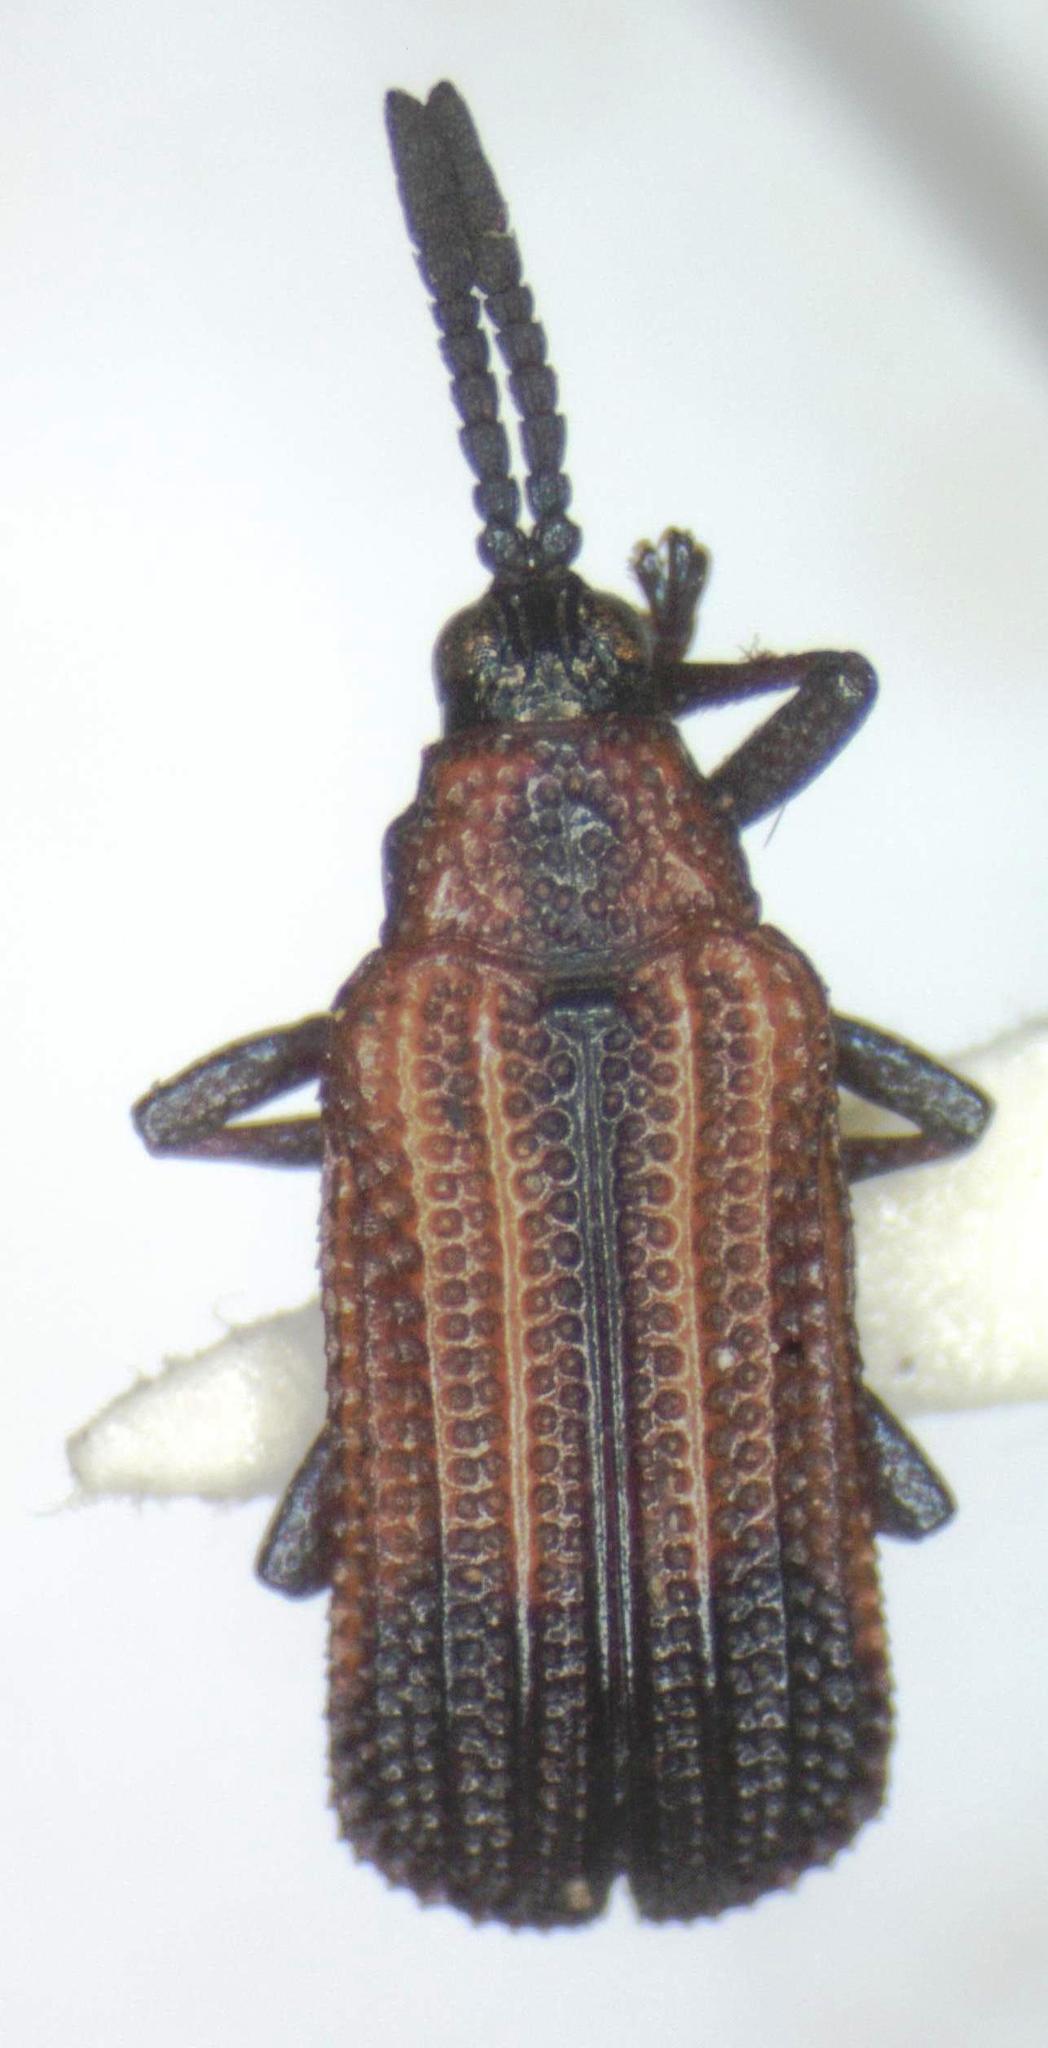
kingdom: Animalia
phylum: Arthropoda
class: Insecta
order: Coleoptera
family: Chrysomelidae
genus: Pentispa
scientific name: Pentispa melanura
